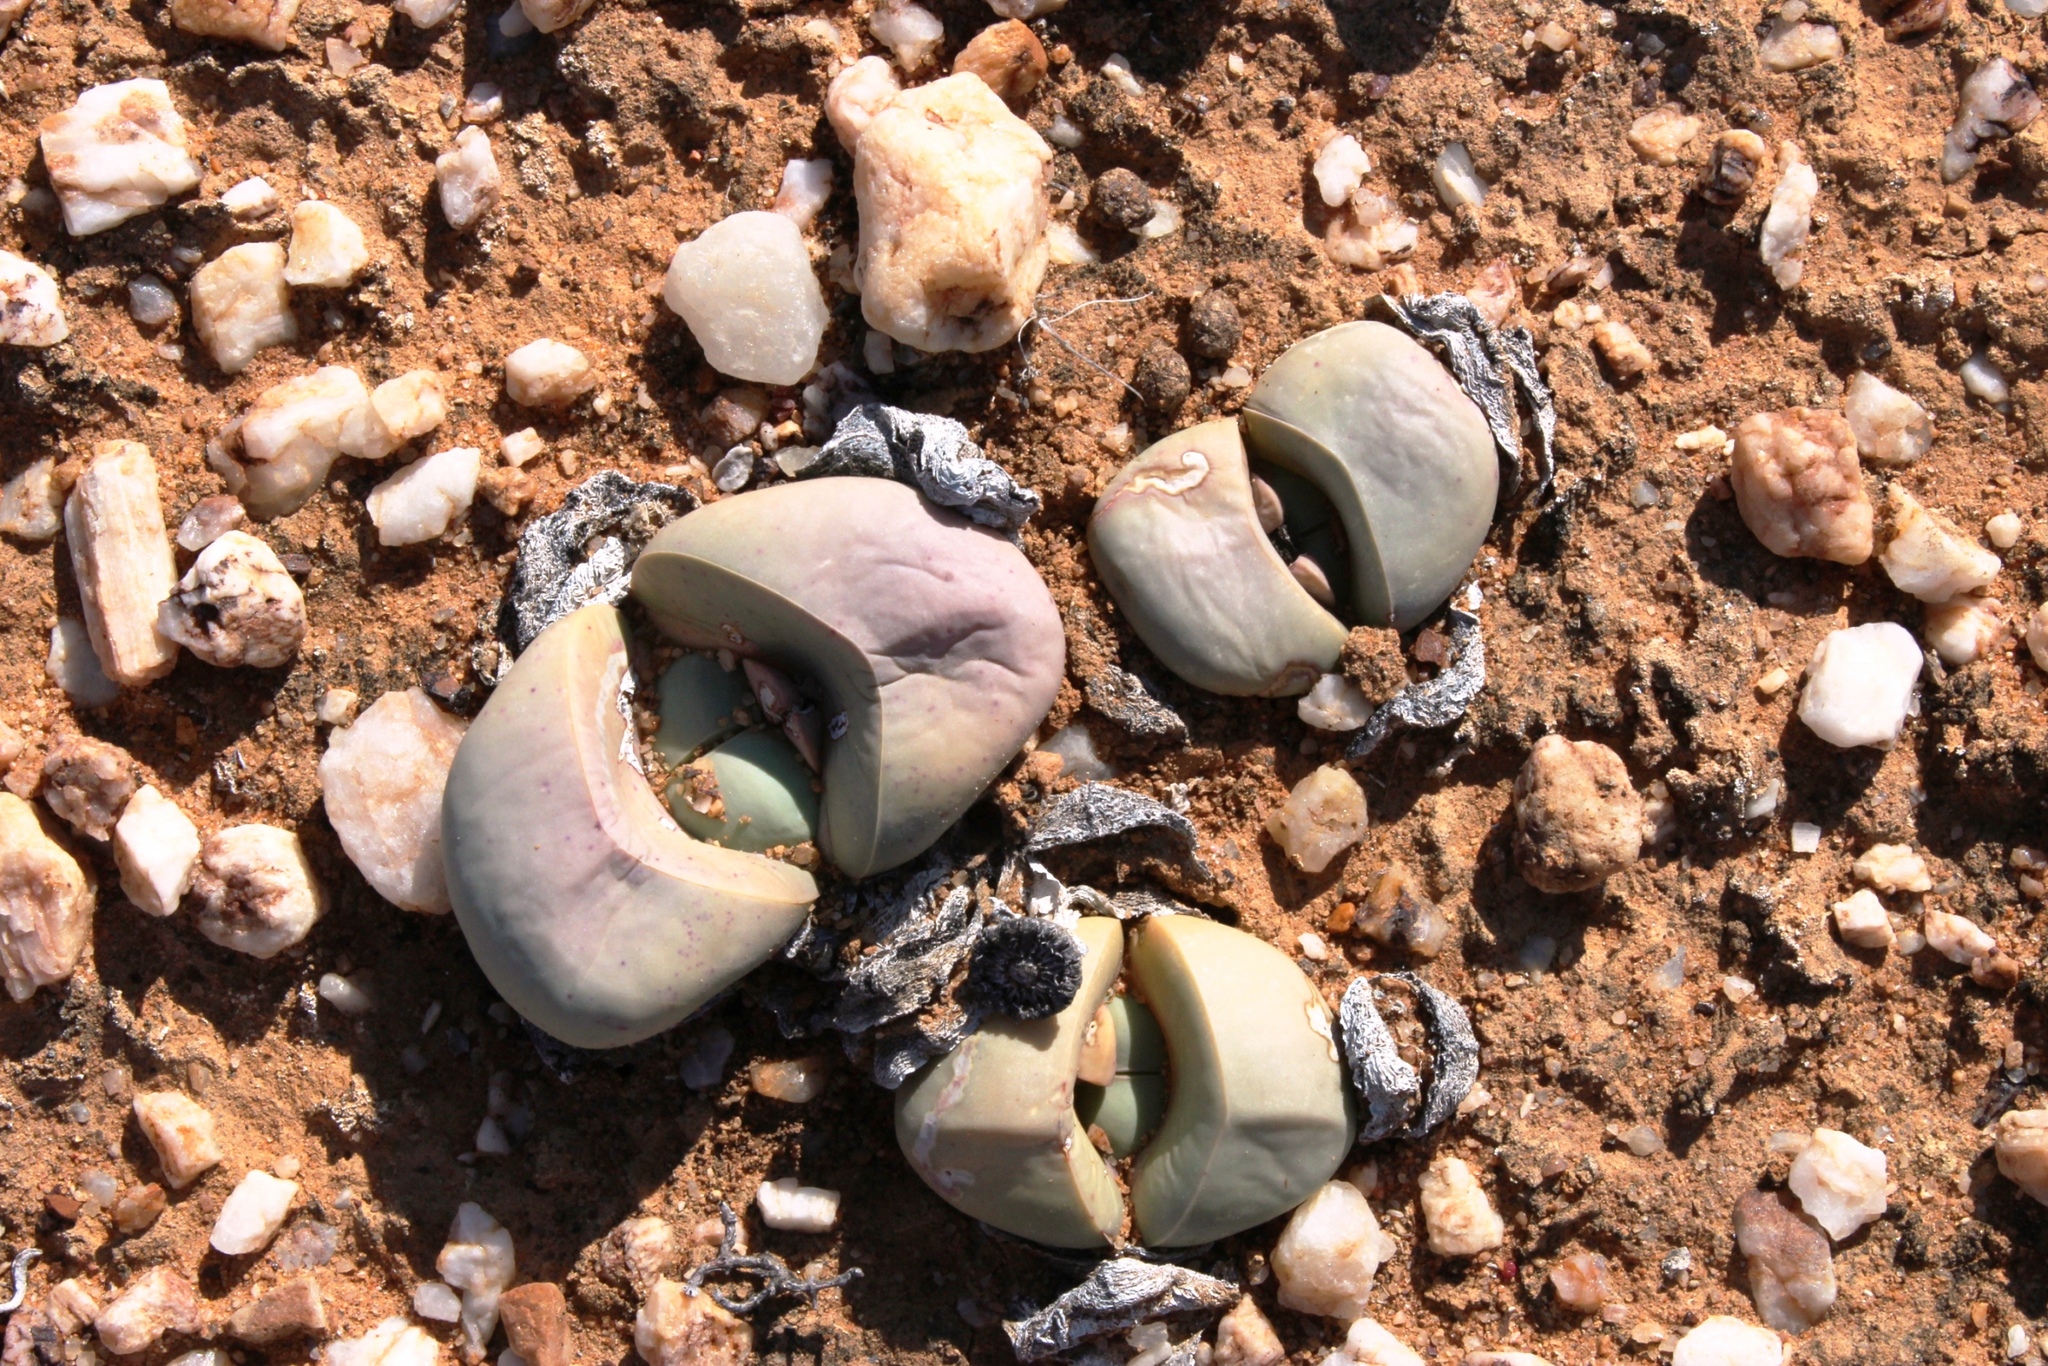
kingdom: Plantae
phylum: Tracheophyta
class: Magnoliopsida
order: Caryophyllales
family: Aizoaceae
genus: Argyroderma
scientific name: Argyroderma delaetii
